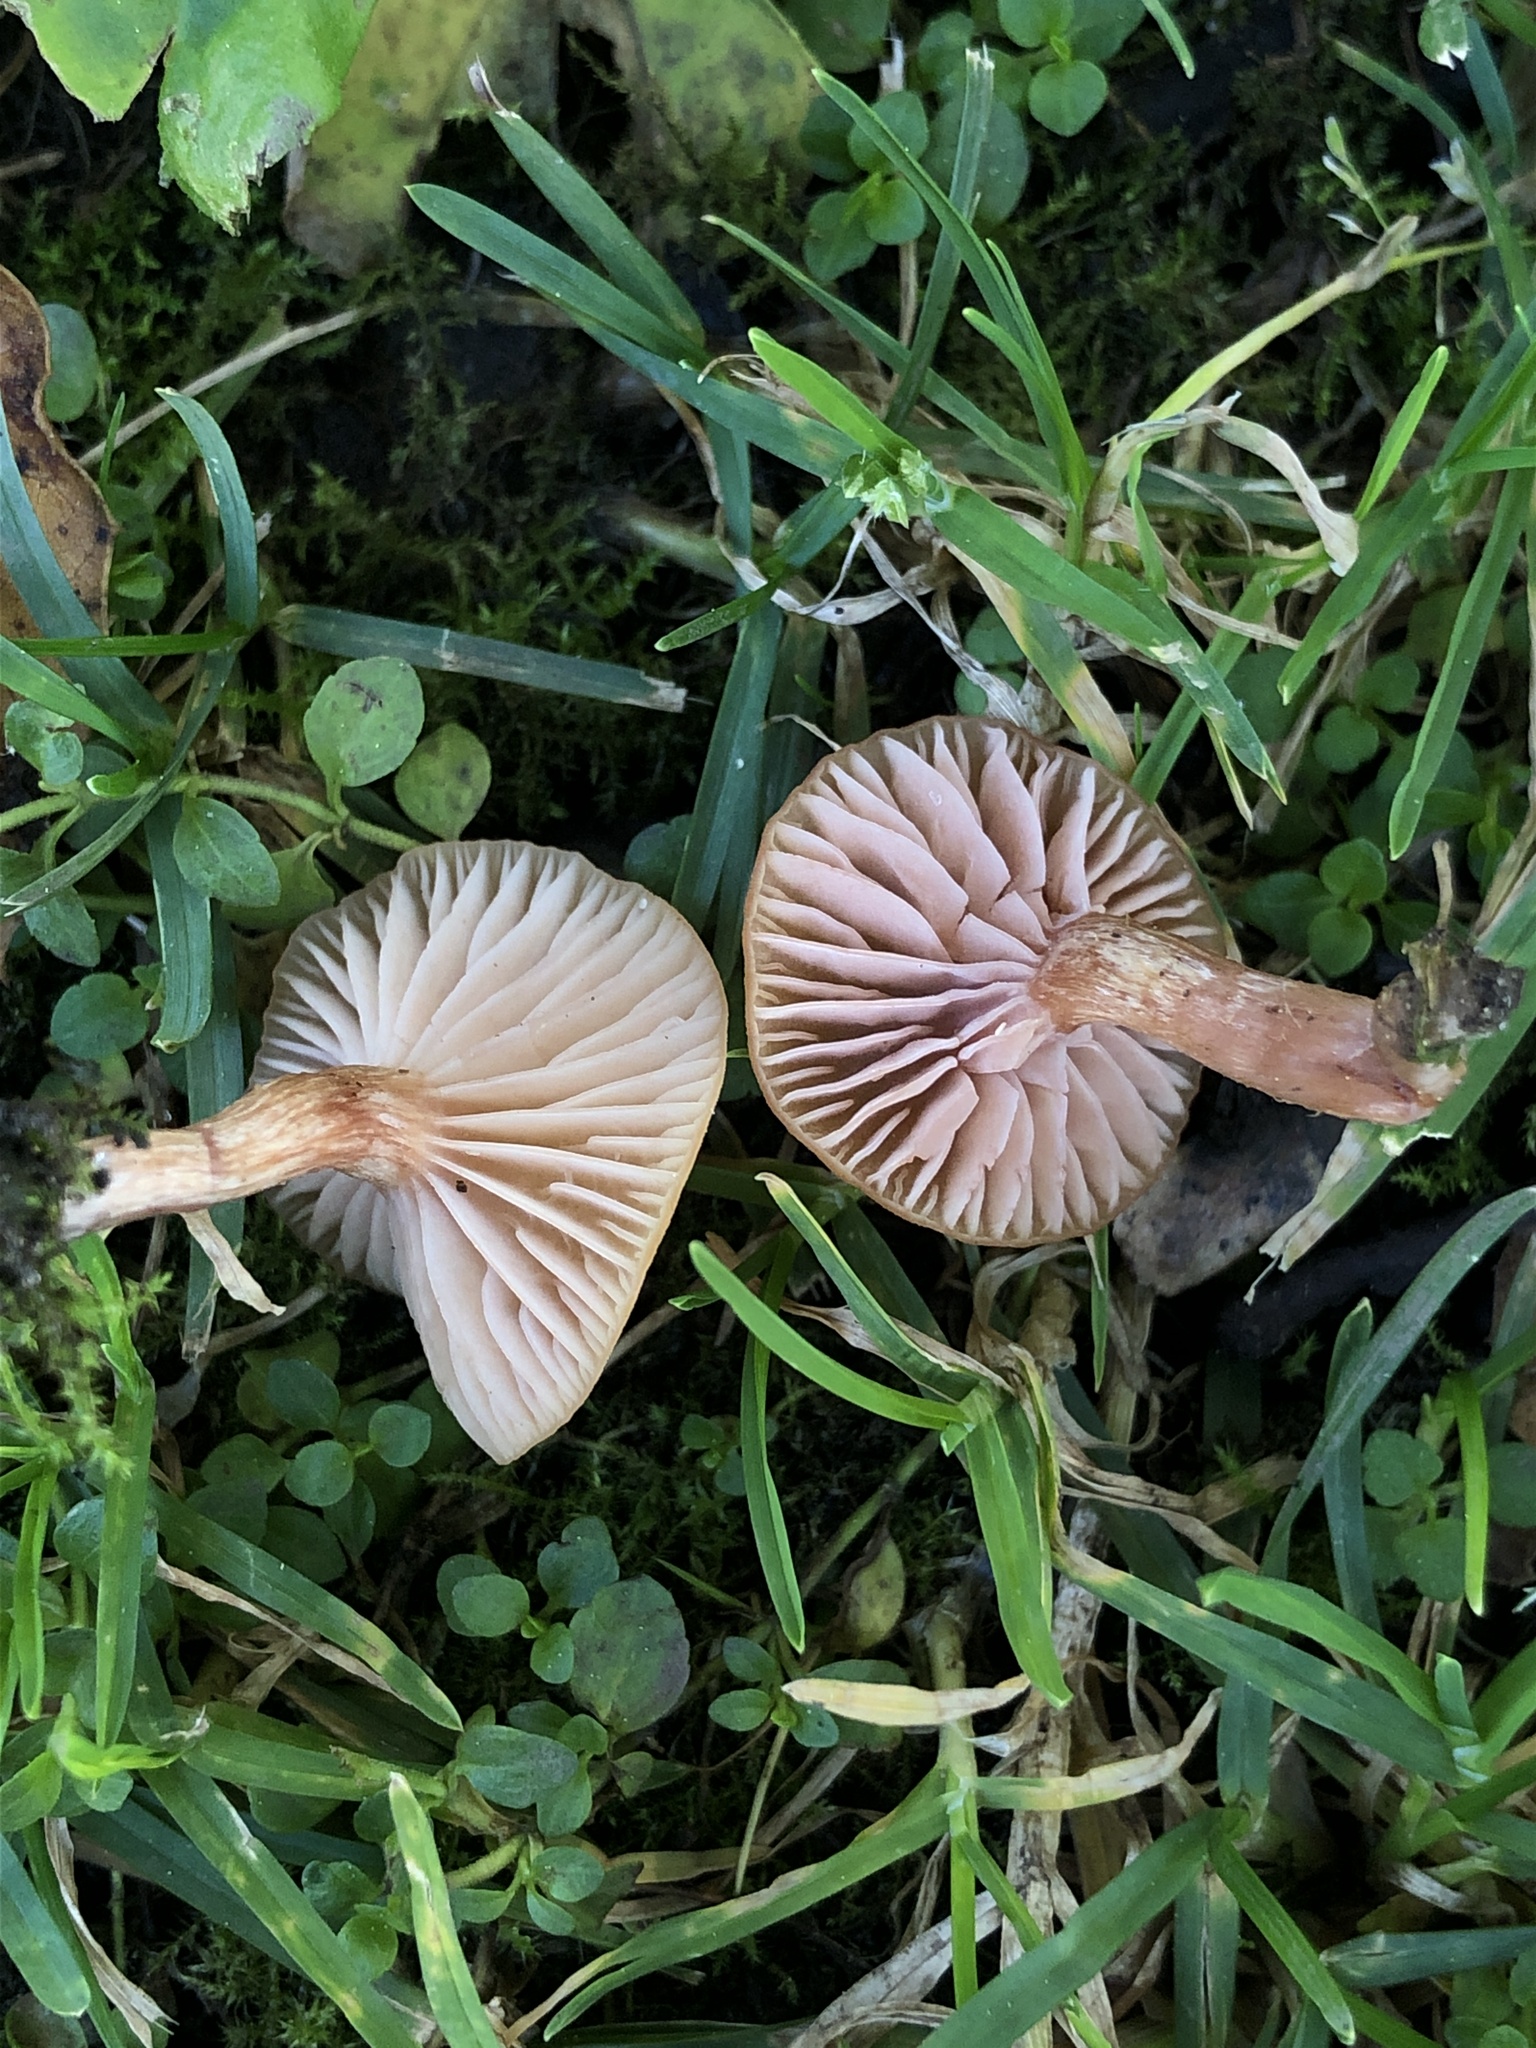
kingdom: Fungi
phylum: Basidiomycota
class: Agaricomycetes
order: Agaricales
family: Hydnangiaceae
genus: Laccaria
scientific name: Laccaria laccata
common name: Deceiver
